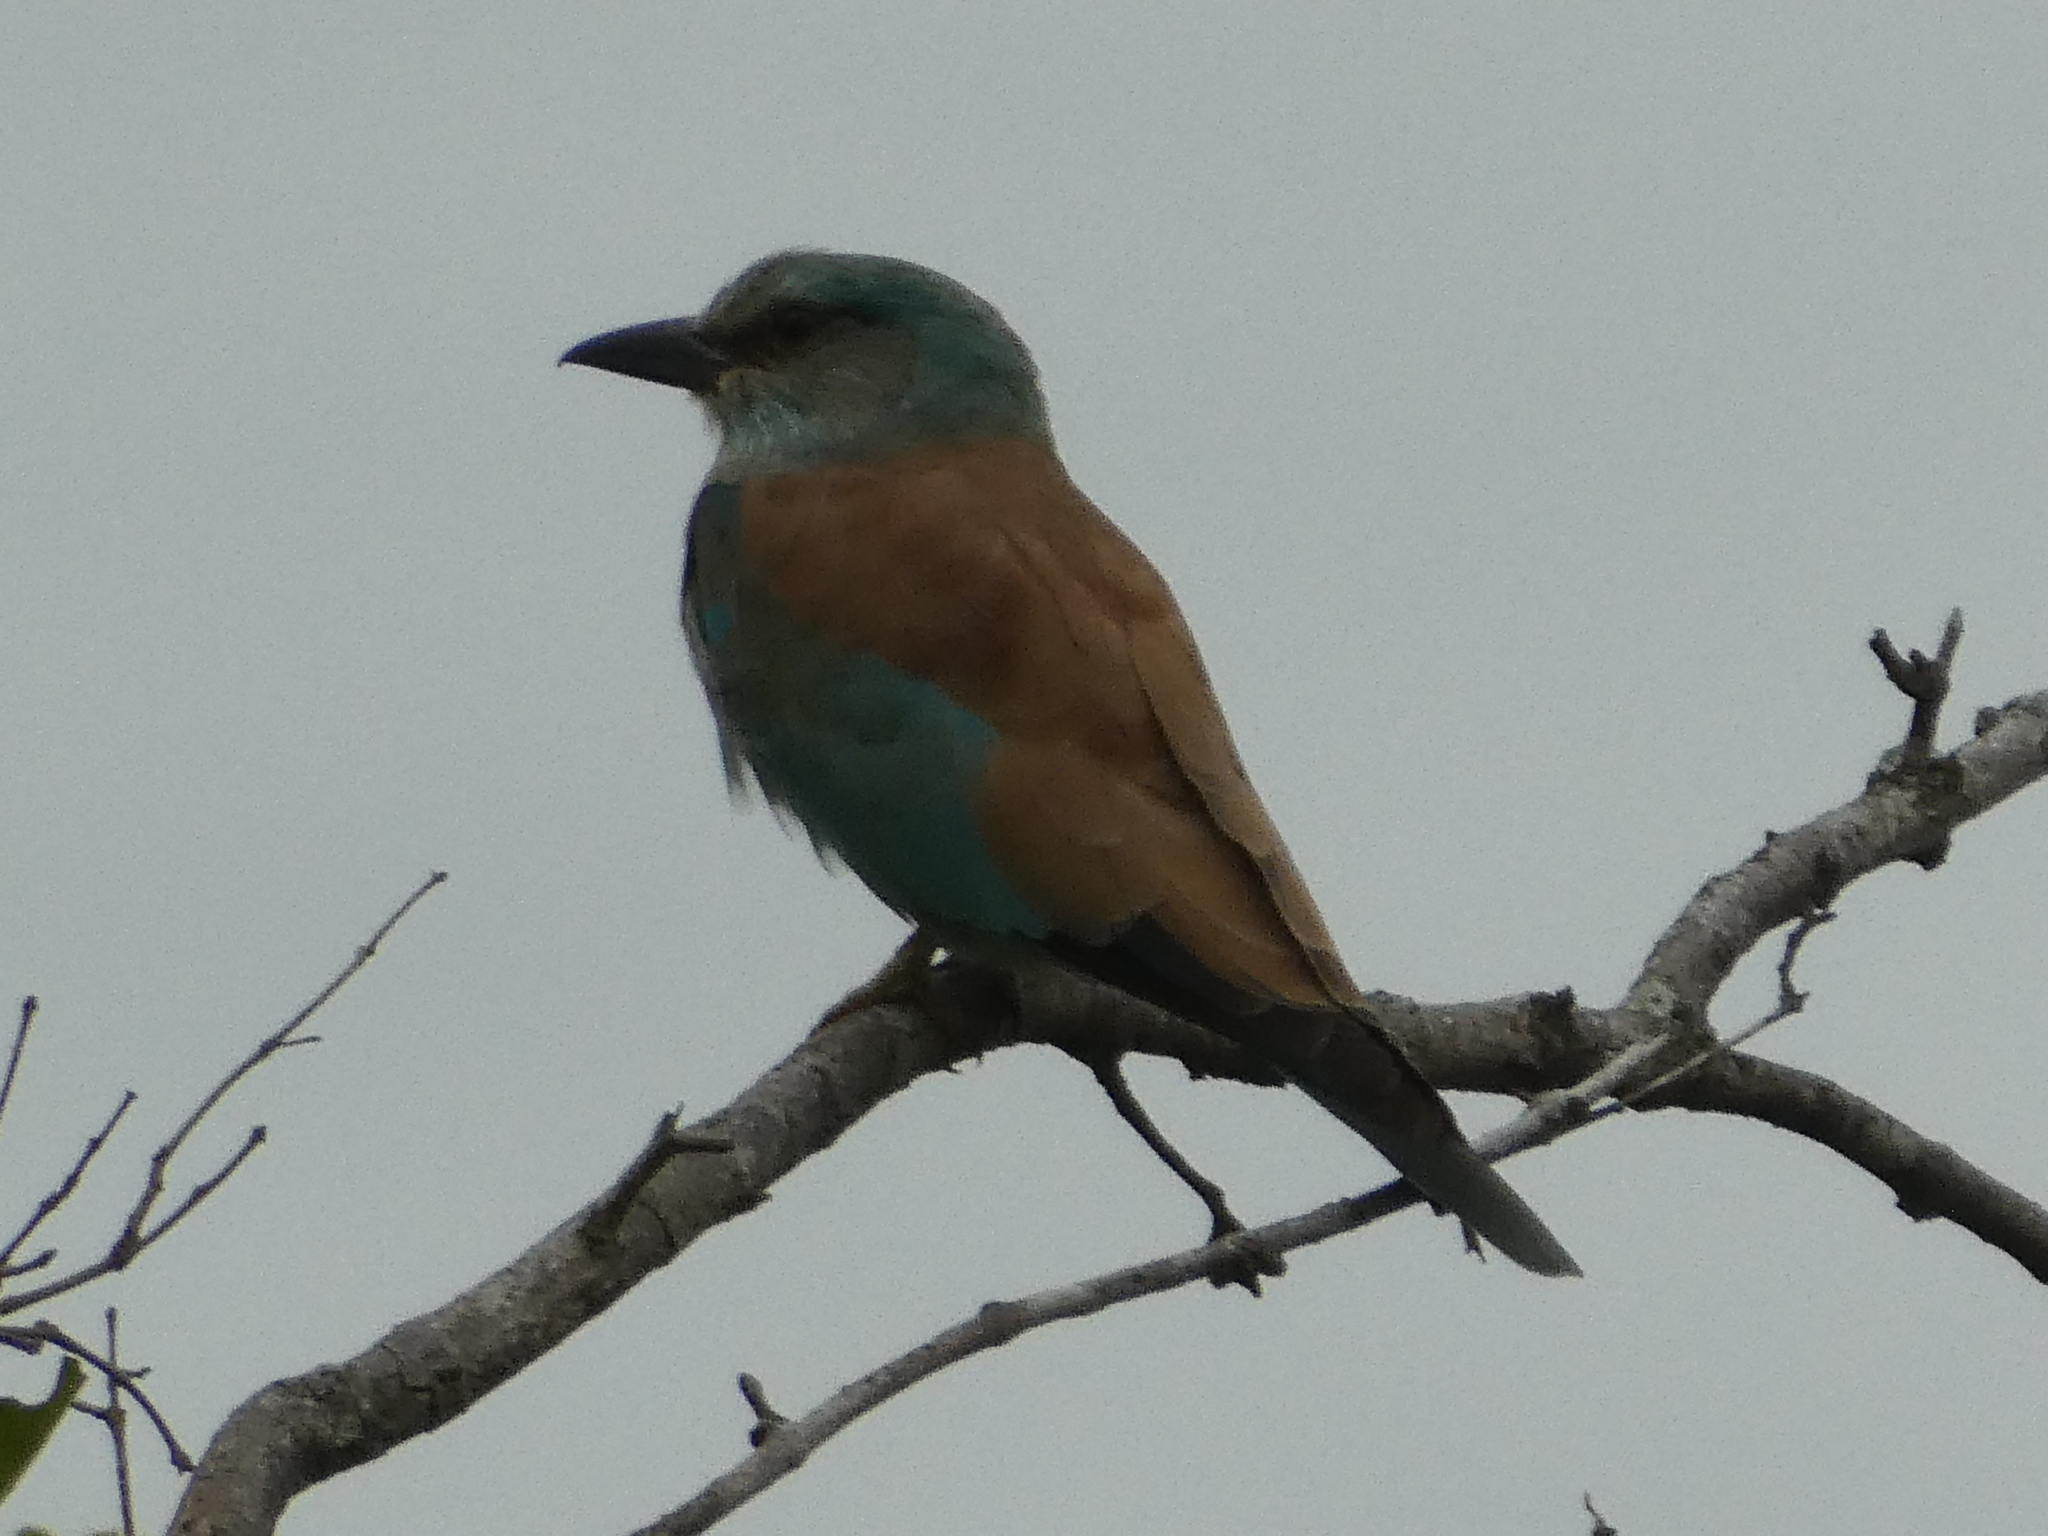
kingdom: Animalia
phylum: Chordata
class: Aves
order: Coraciiformes
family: Coraciidae
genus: Coracias
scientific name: Coracias garrulus
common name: European roller
